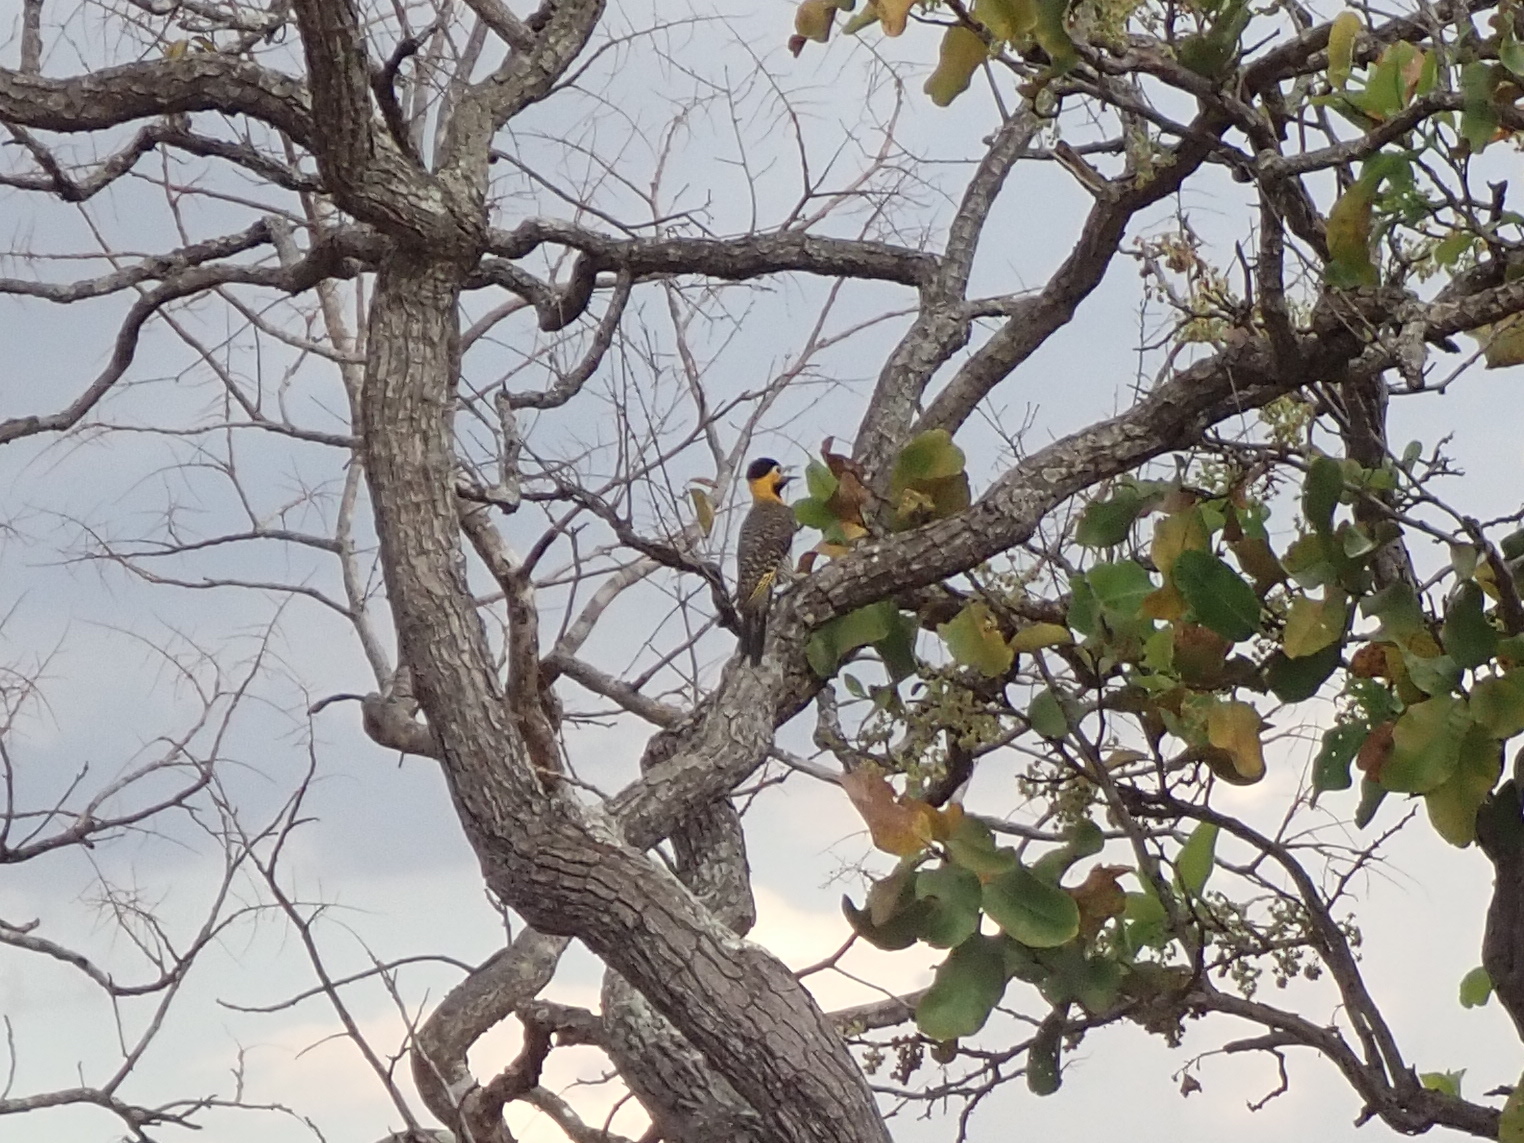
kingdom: Animalia
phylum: Chordata
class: Aves
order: Piciformes
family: Picidae
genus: Colaptes
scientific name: Colaptes campestris
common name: Campo flicker
